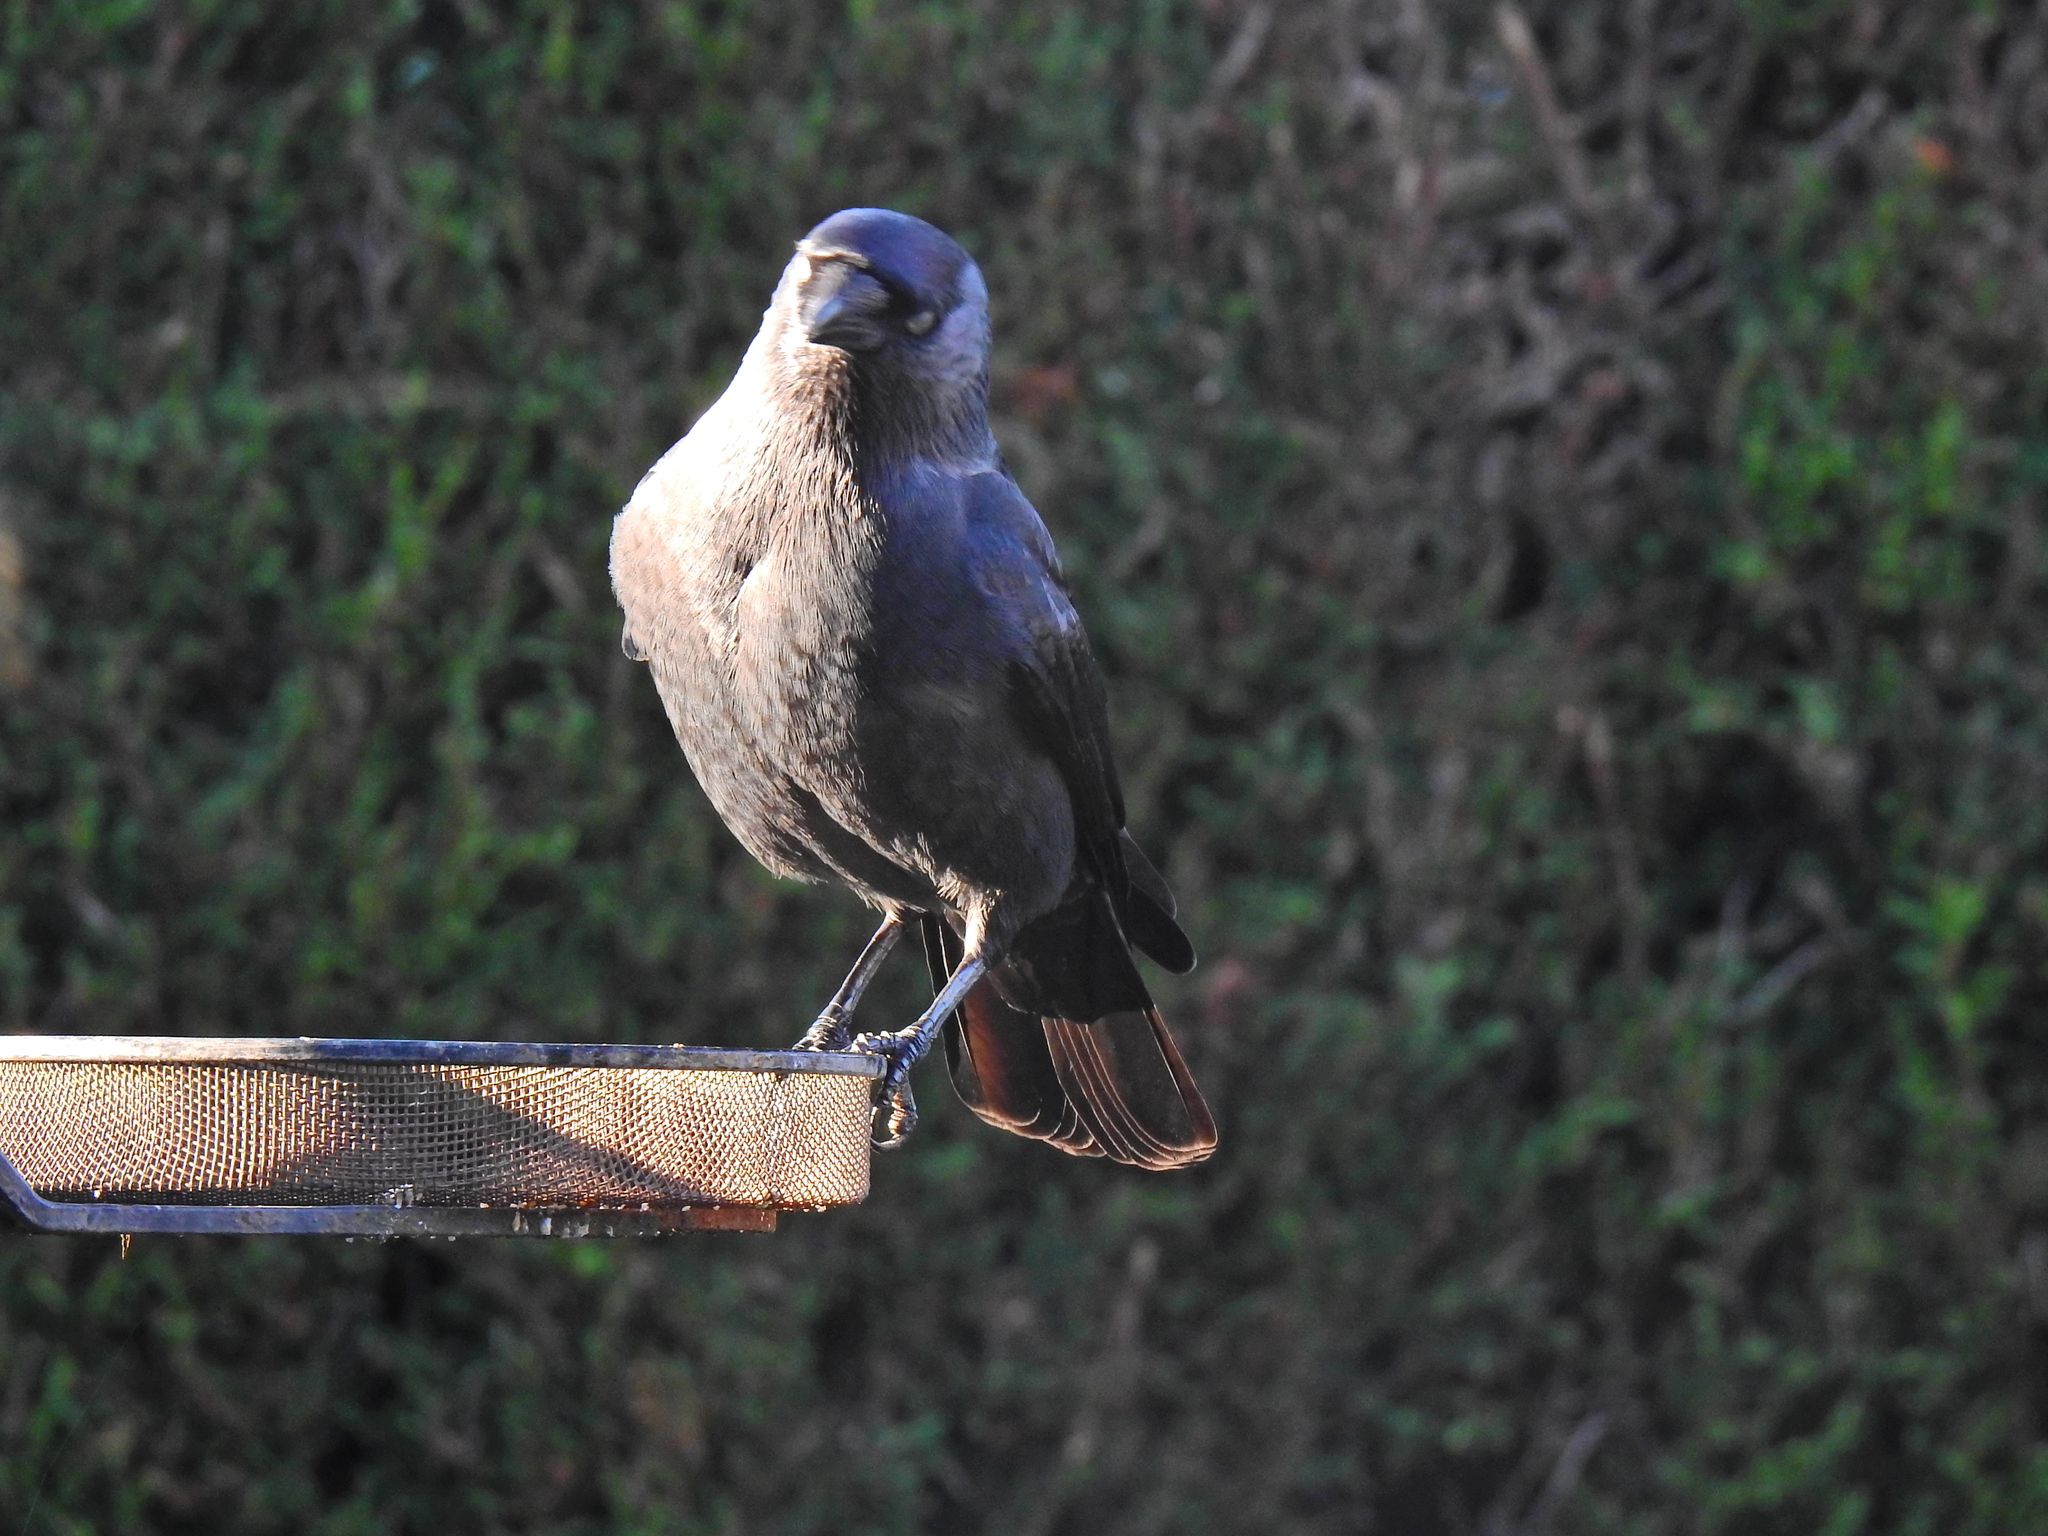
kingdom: Animalia
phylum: Chordata
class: Aves
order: Passeriformes
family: Corvidae
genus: Coloeus
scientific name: Coloeus monedula
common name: Western jackdaw
